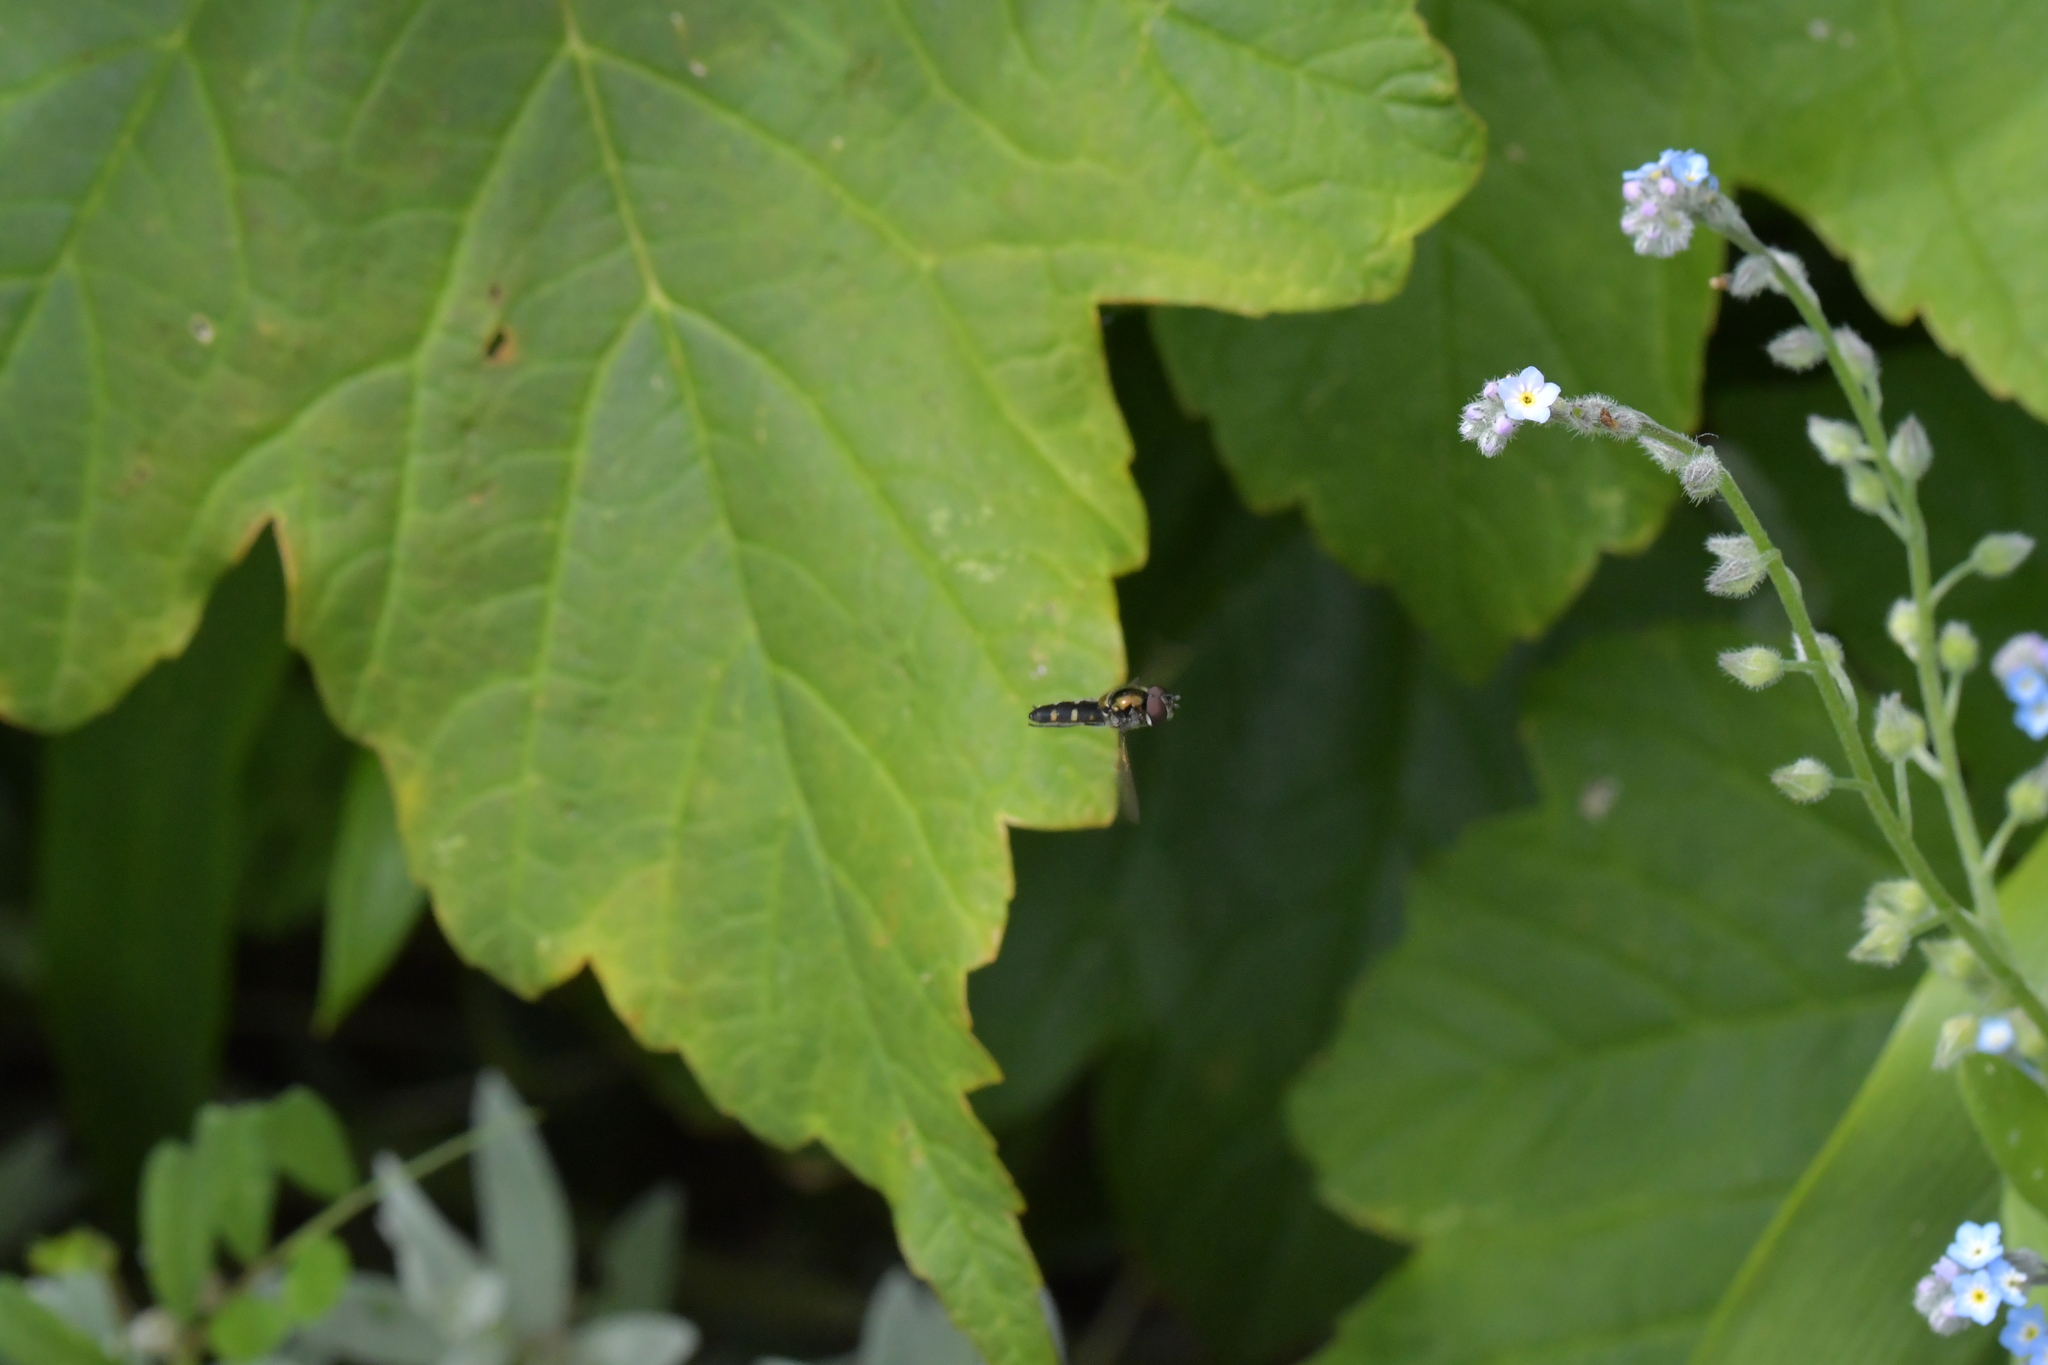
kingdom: Animalia
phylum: Arthropoda
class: Insecta
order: Diptera
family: Syrphidae
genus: Melangyna
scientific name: Melangyna novaezelandiae
